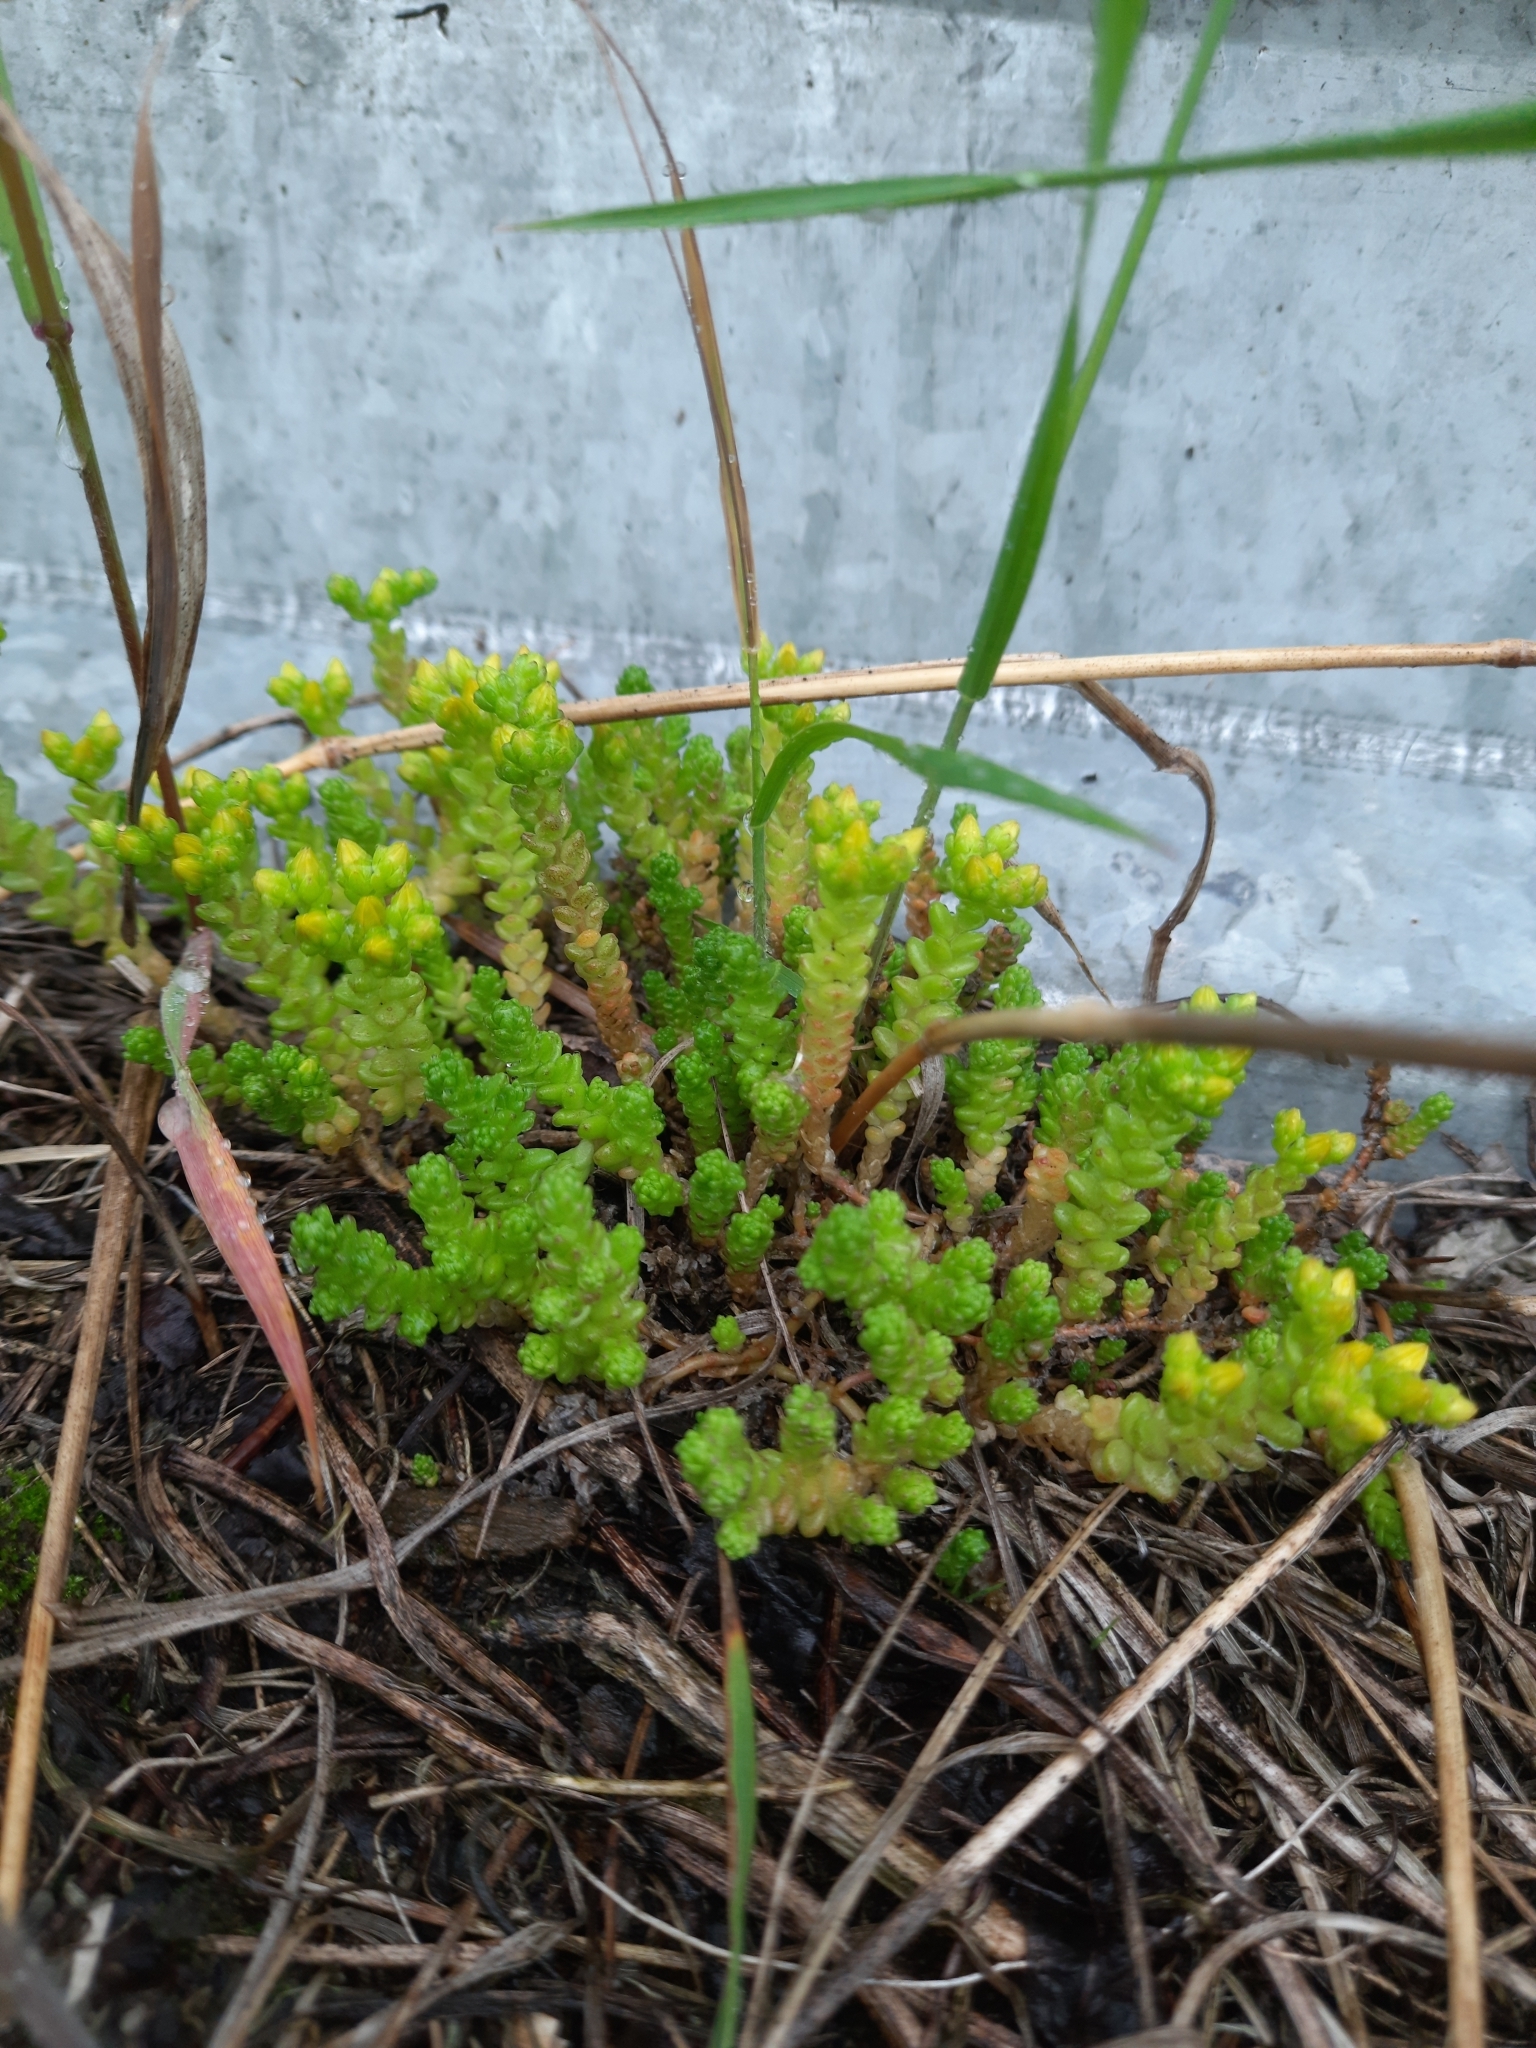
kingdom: Plantae
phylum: Tracheophyta
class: Magnoliopsida
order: Saxifragales
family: Crassulaceae
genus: Sedum
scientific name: Sedum acre
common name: Biting stonecrop
